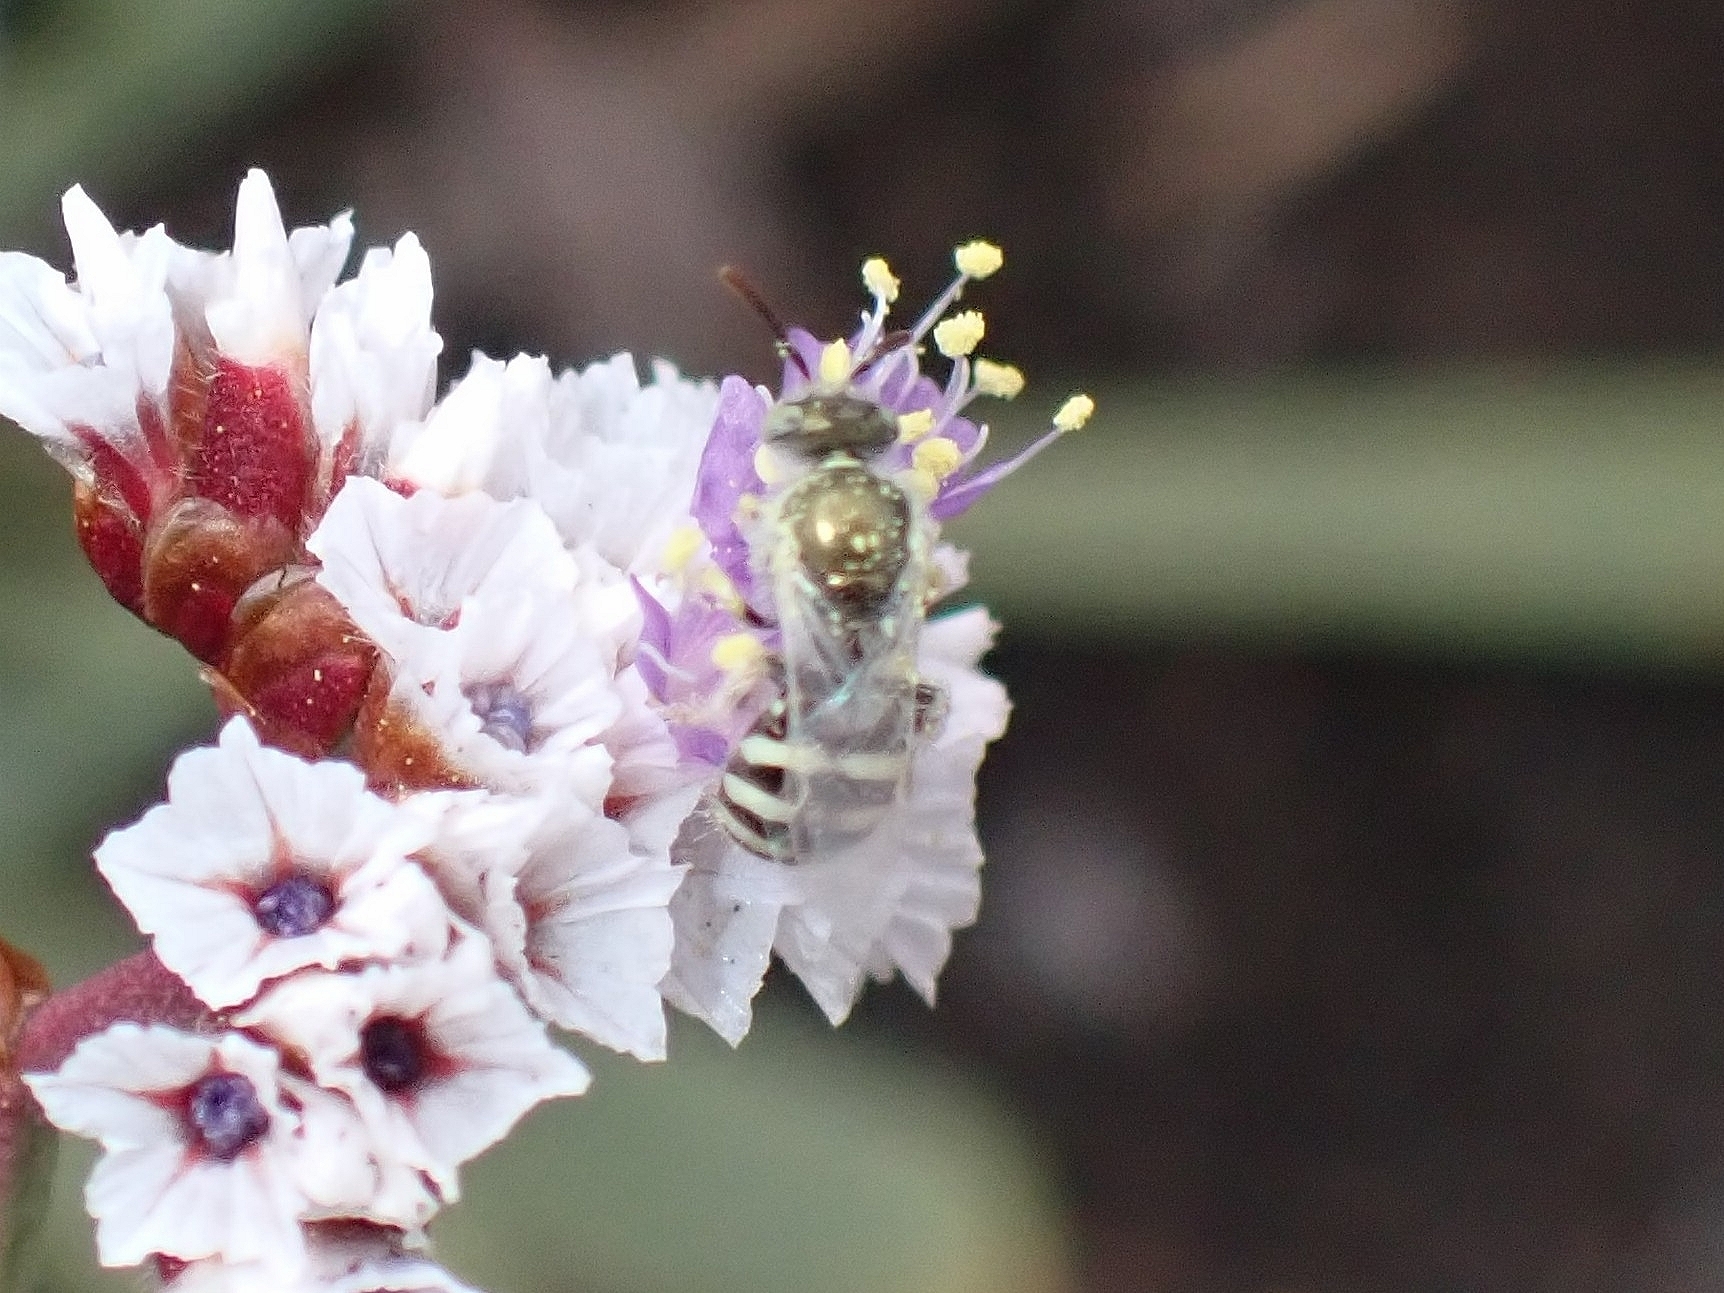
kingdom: Animalia
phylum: Arthropoda
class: Insecta
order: Hymenoptera
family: Halictidae
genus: Ceylalictus
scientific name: Ceylalictus variegatus
